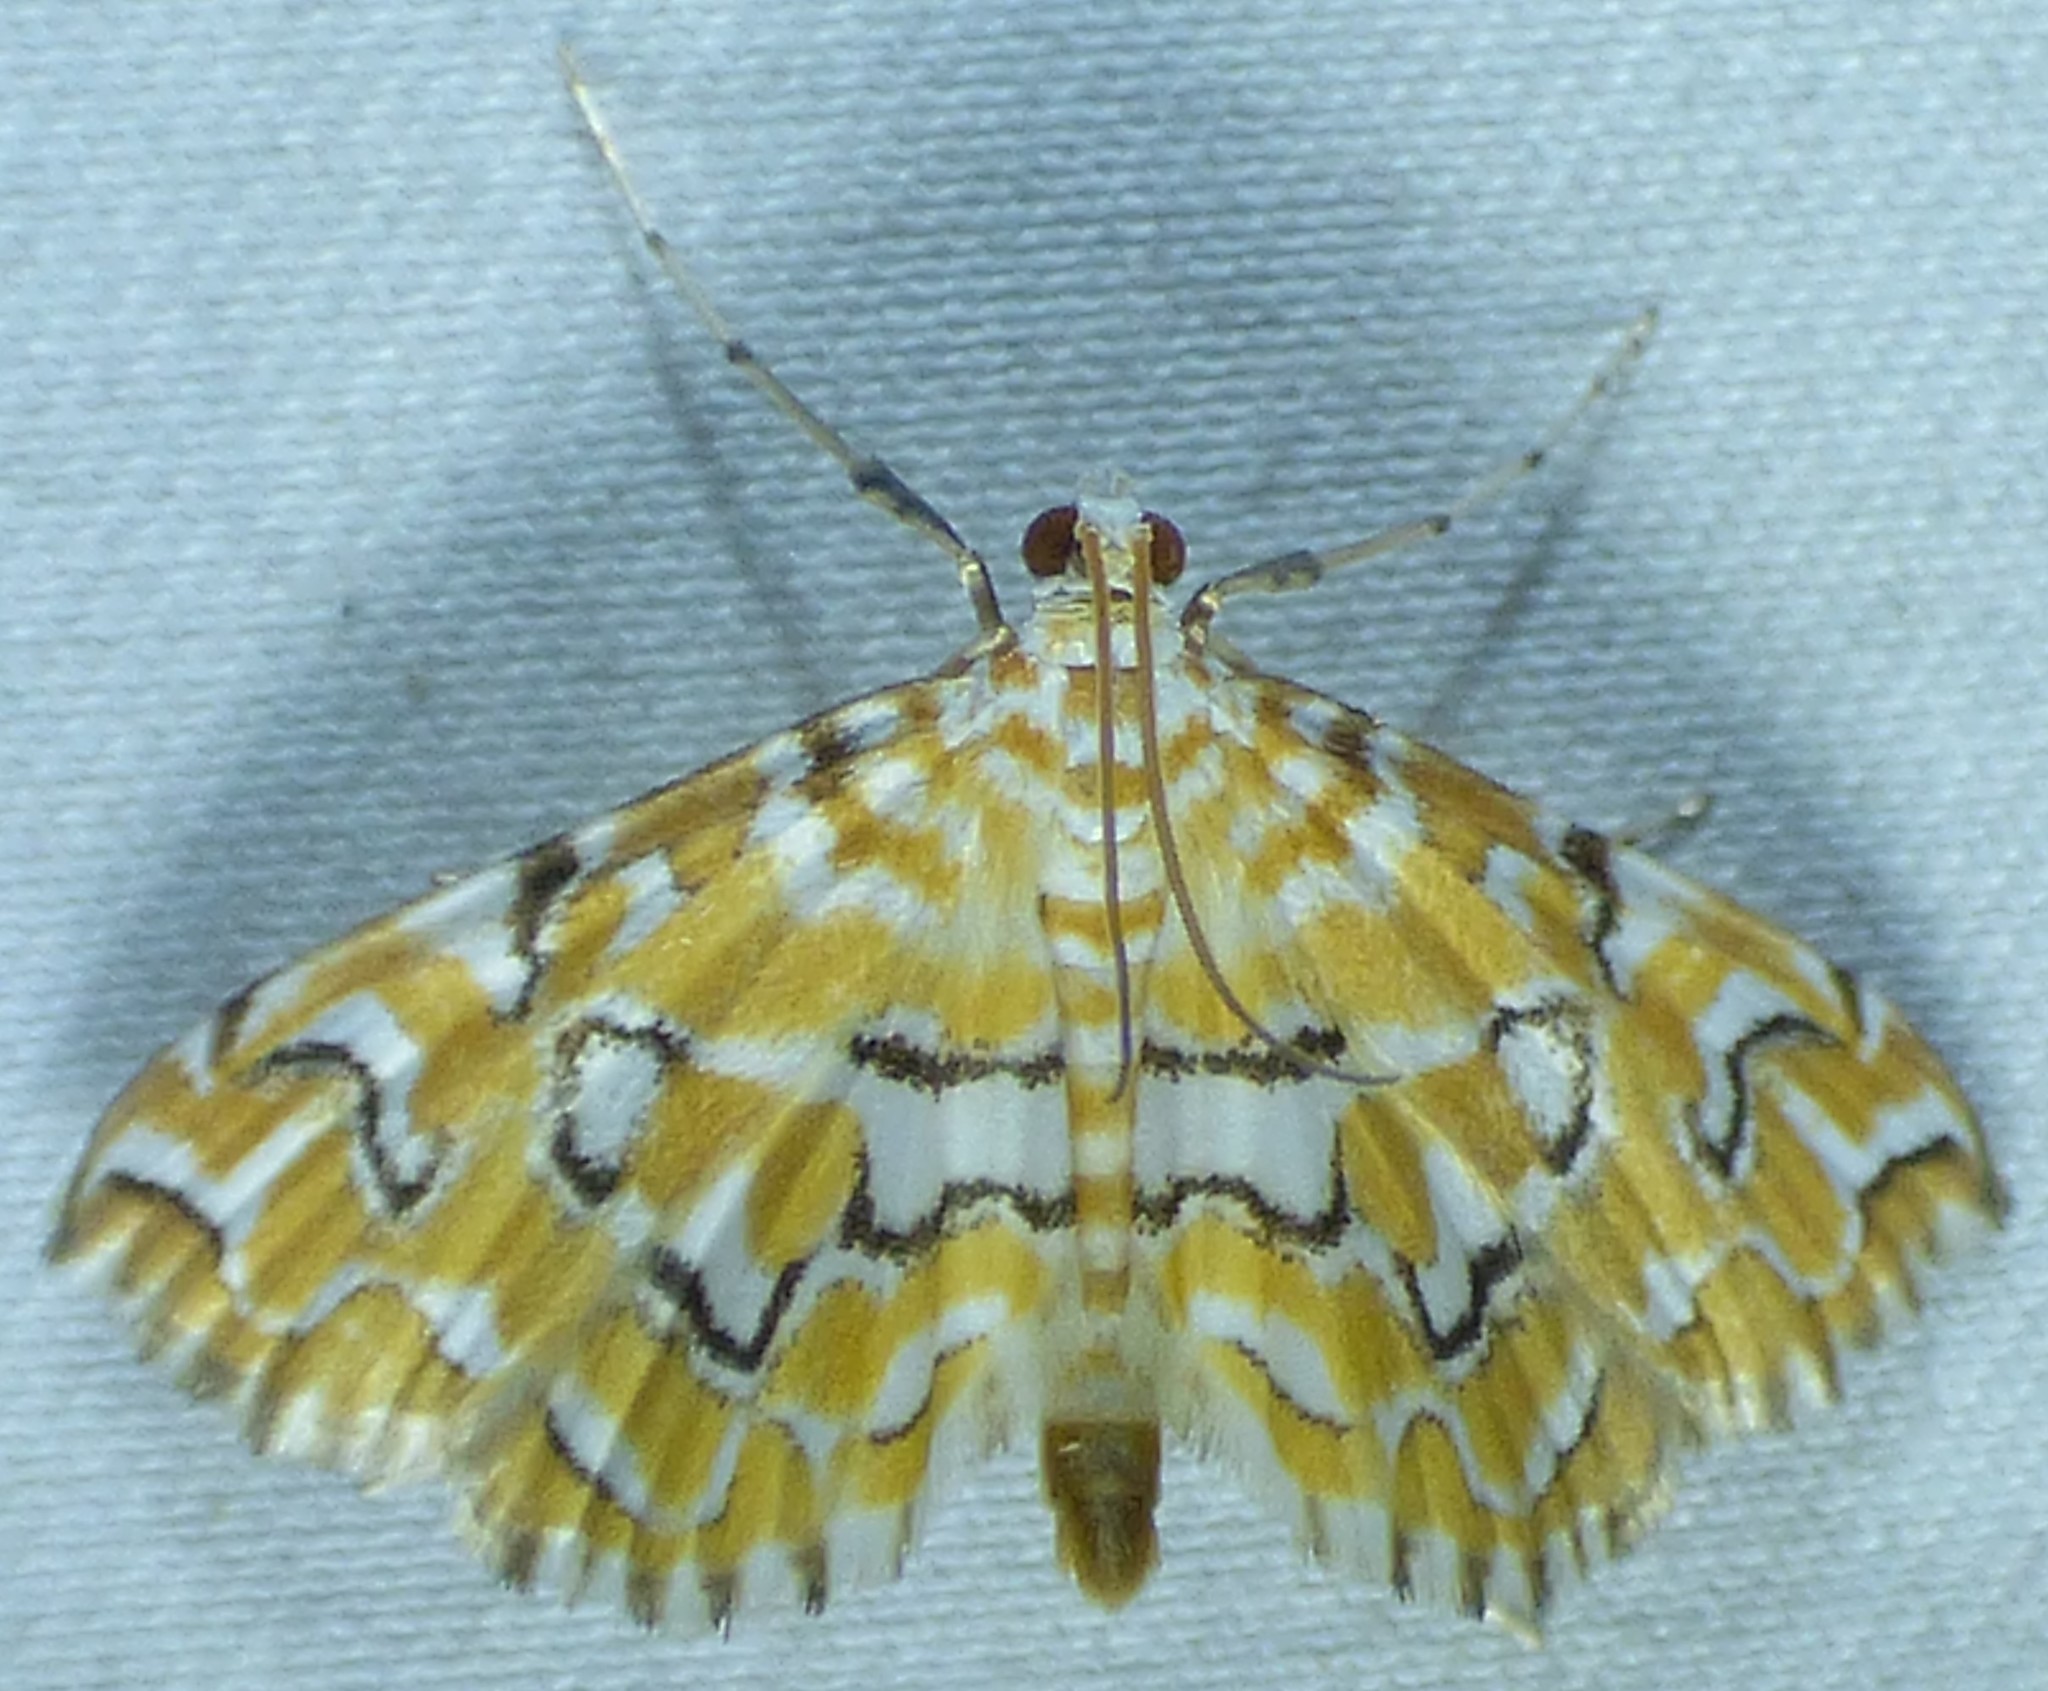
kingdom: Animalia
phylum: Arthropoda
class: Insecta
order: Lepidoptera
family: Crambidae
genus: Elophila
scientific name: Elophila icciusalis
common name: Pondside pyralid moth
